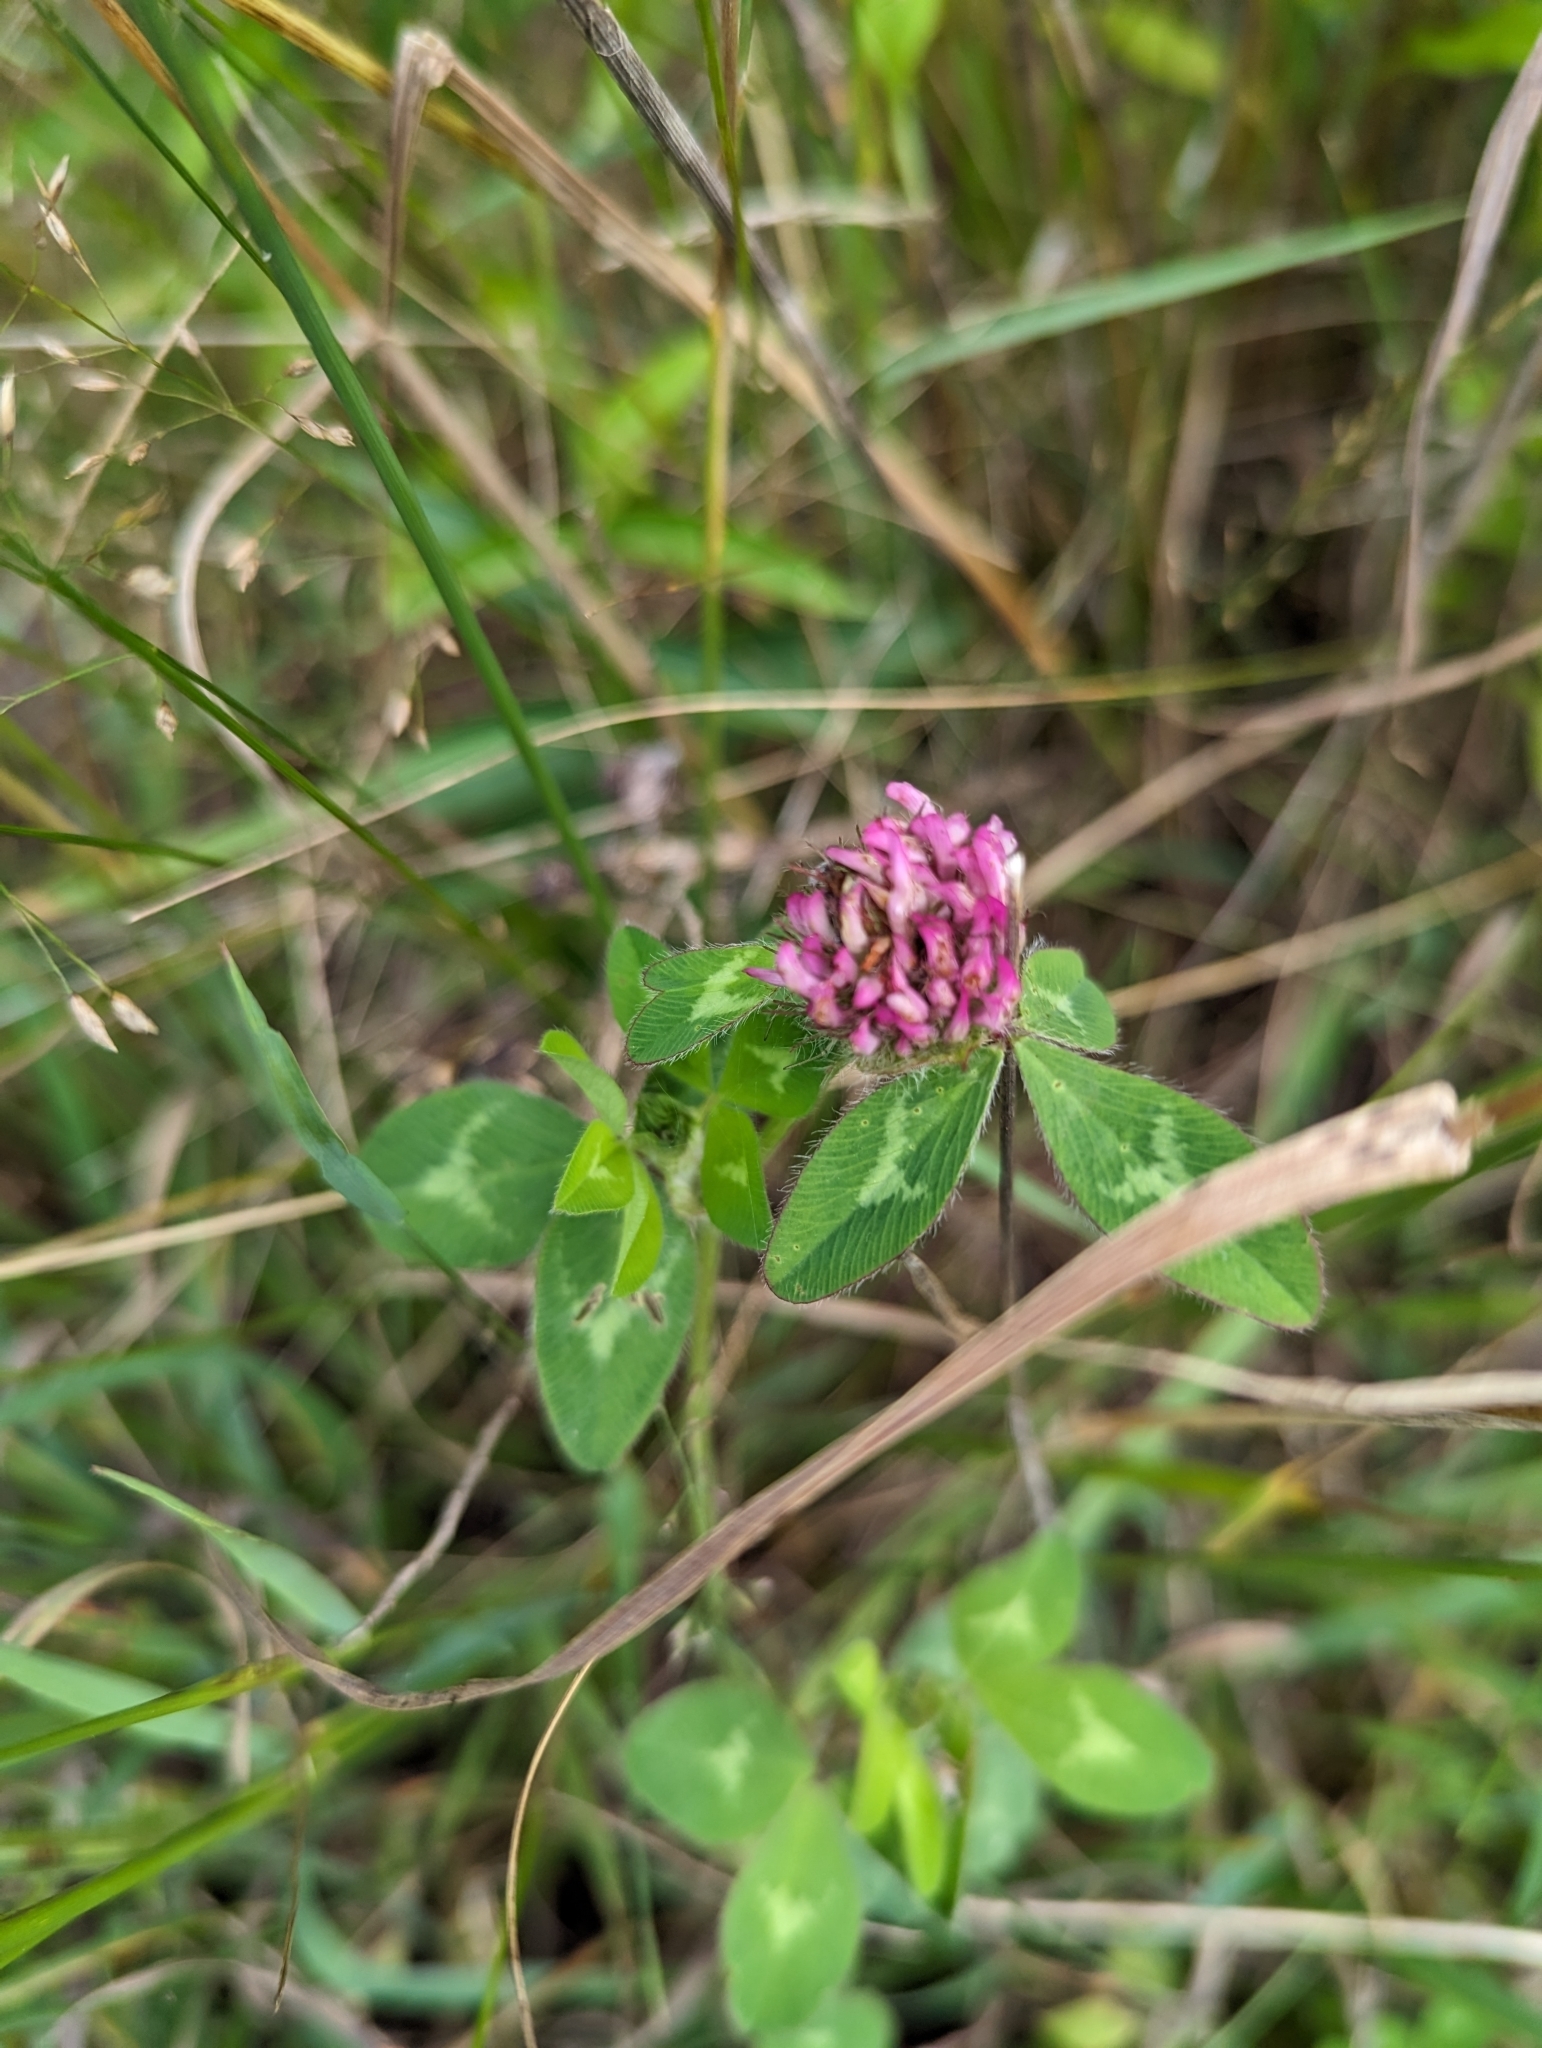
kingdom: Plantae
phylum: Tracheophyta
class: Magnoliopsida
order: Fabales
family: Fabaceae
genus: Trifolium
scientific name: Trifolium pratense
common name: Red clover
